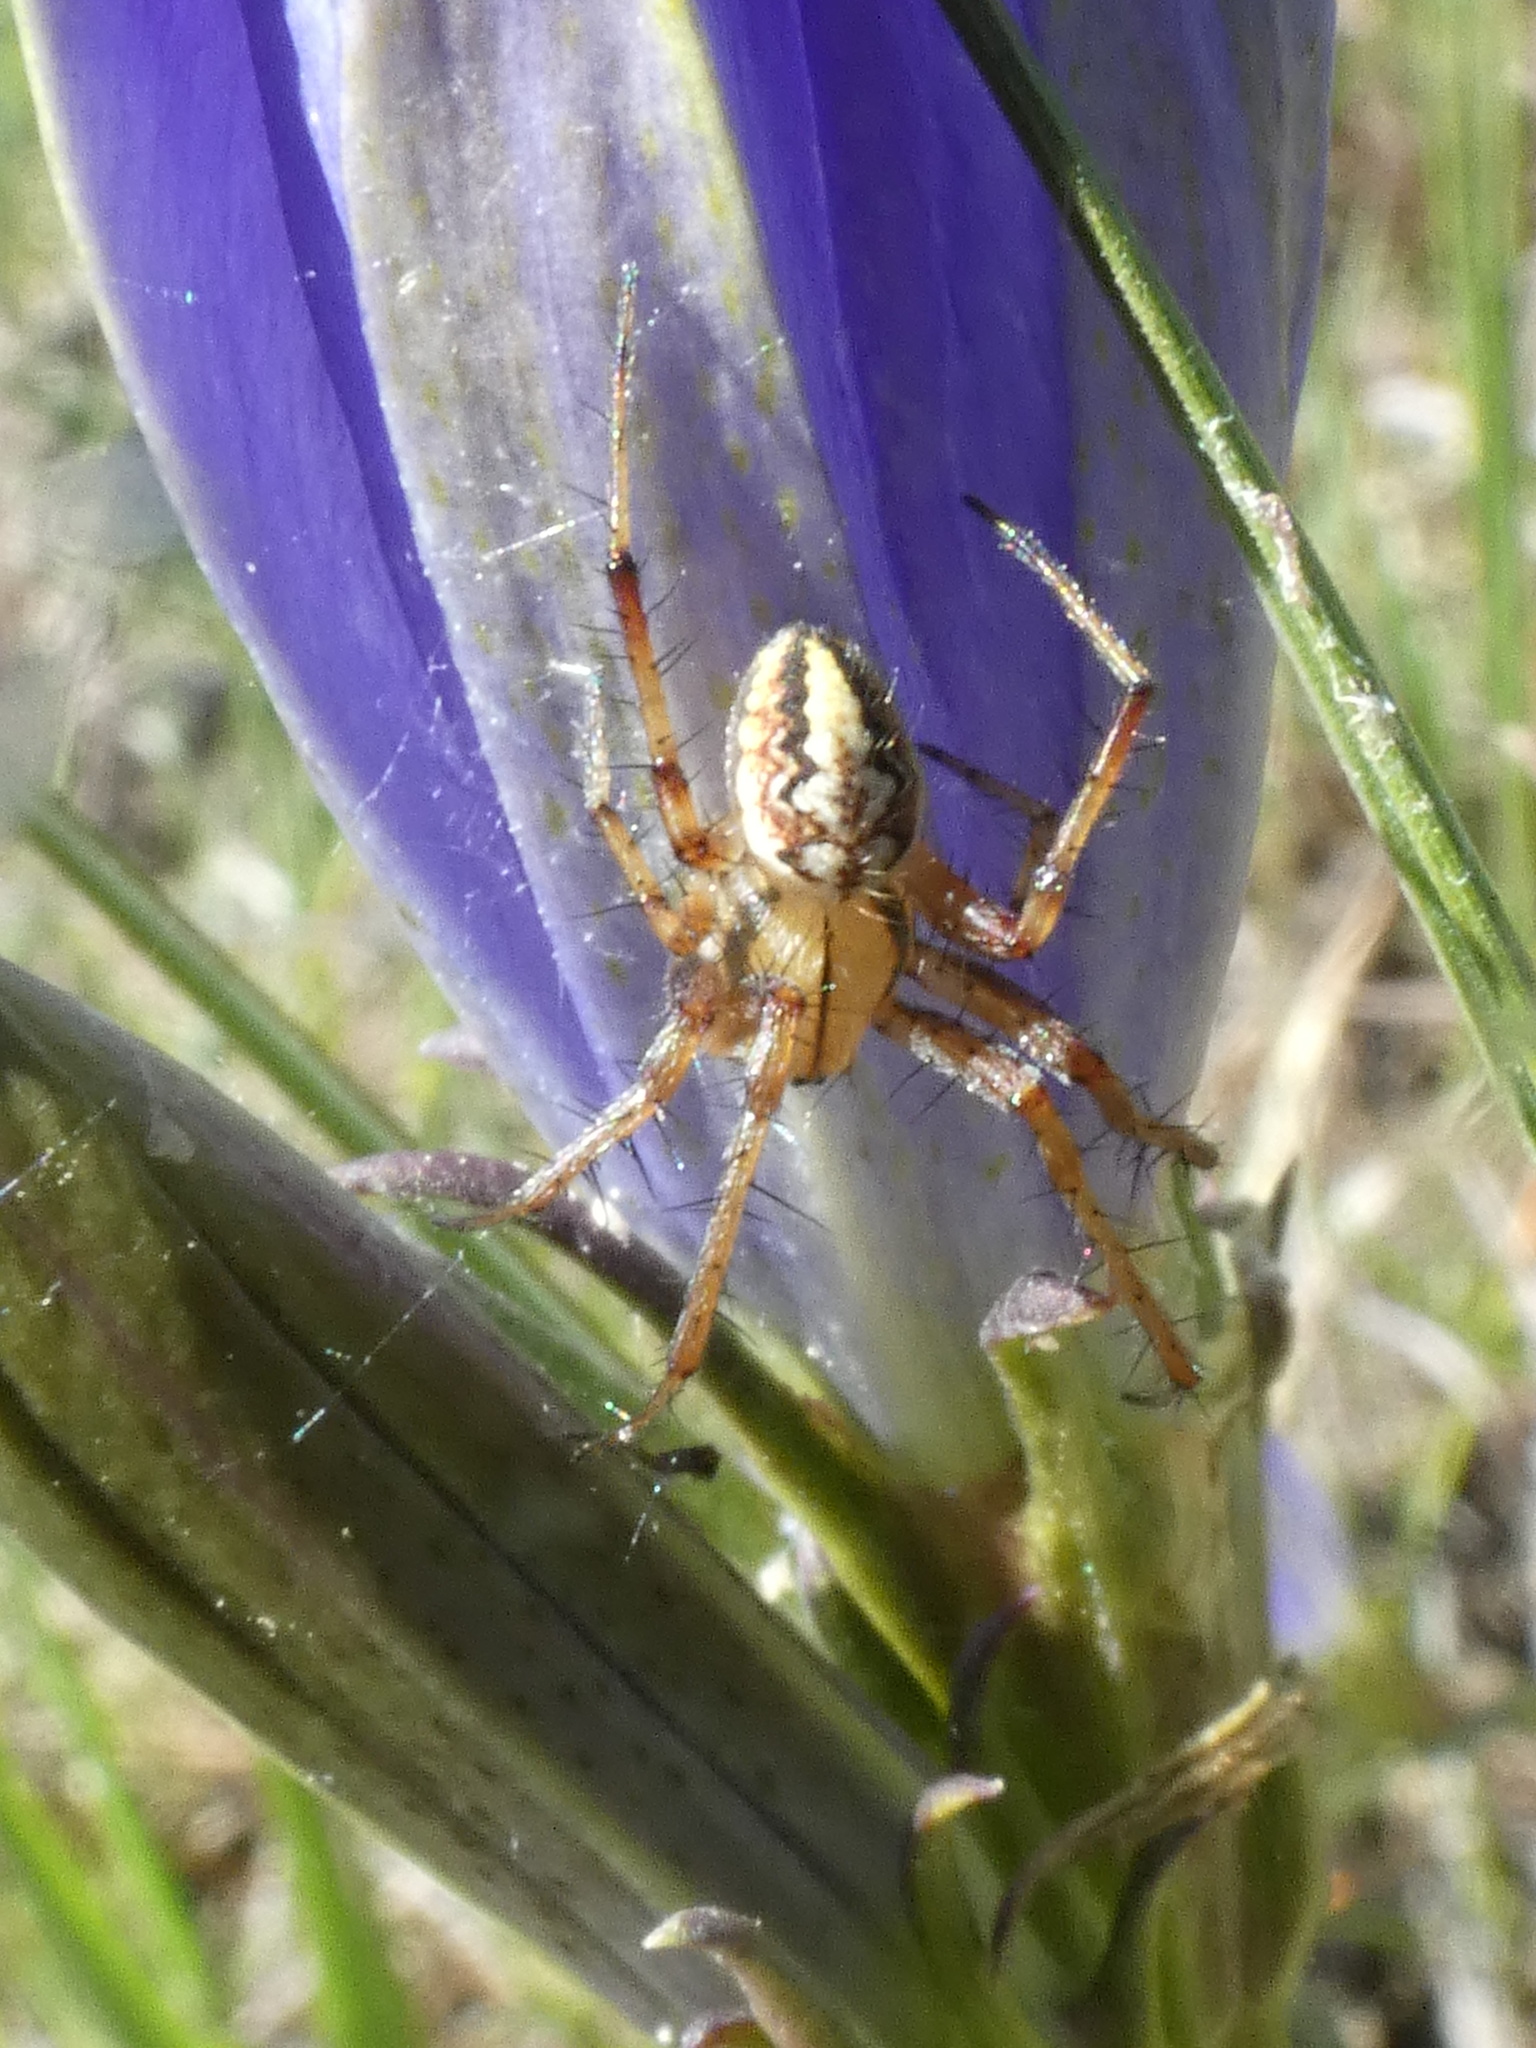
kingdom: Animalia
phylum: Arthropoda
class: Arachnida
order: Araneae
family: Araneidae
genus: Neoscona
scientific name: Neoscona adianta
